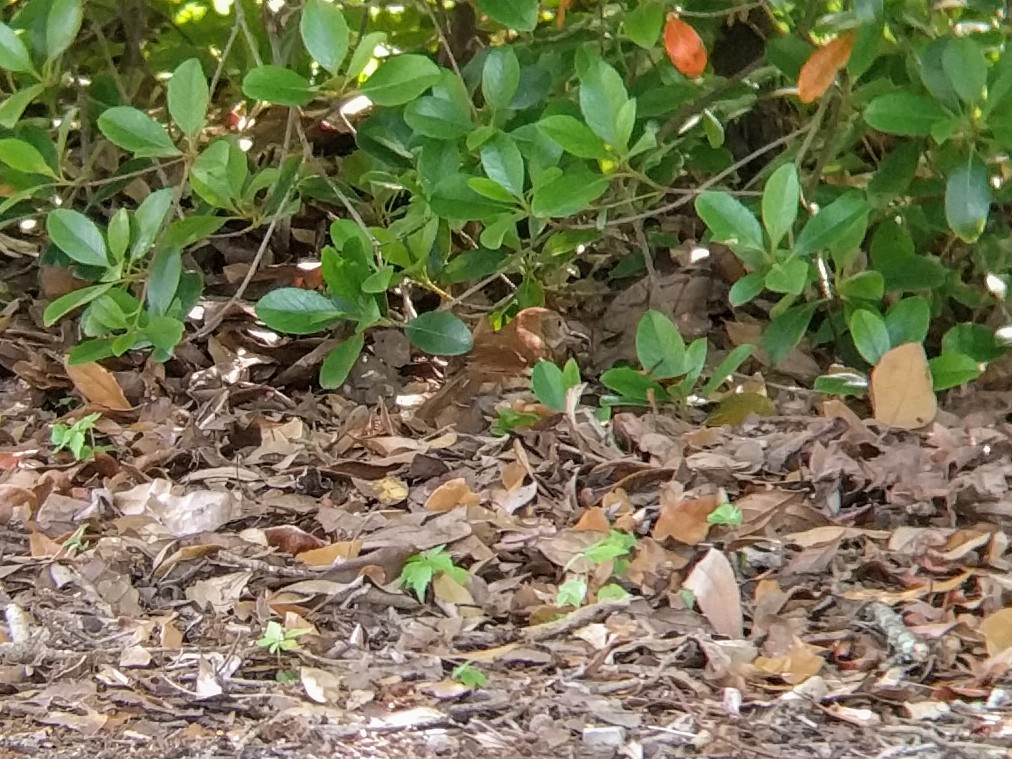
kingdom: Animalia
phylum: Chordata
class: Aves
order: Passeriformes
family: Mimidae
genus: Toxostoma
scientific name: Toxostoma rufum
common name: Brown thrasher
